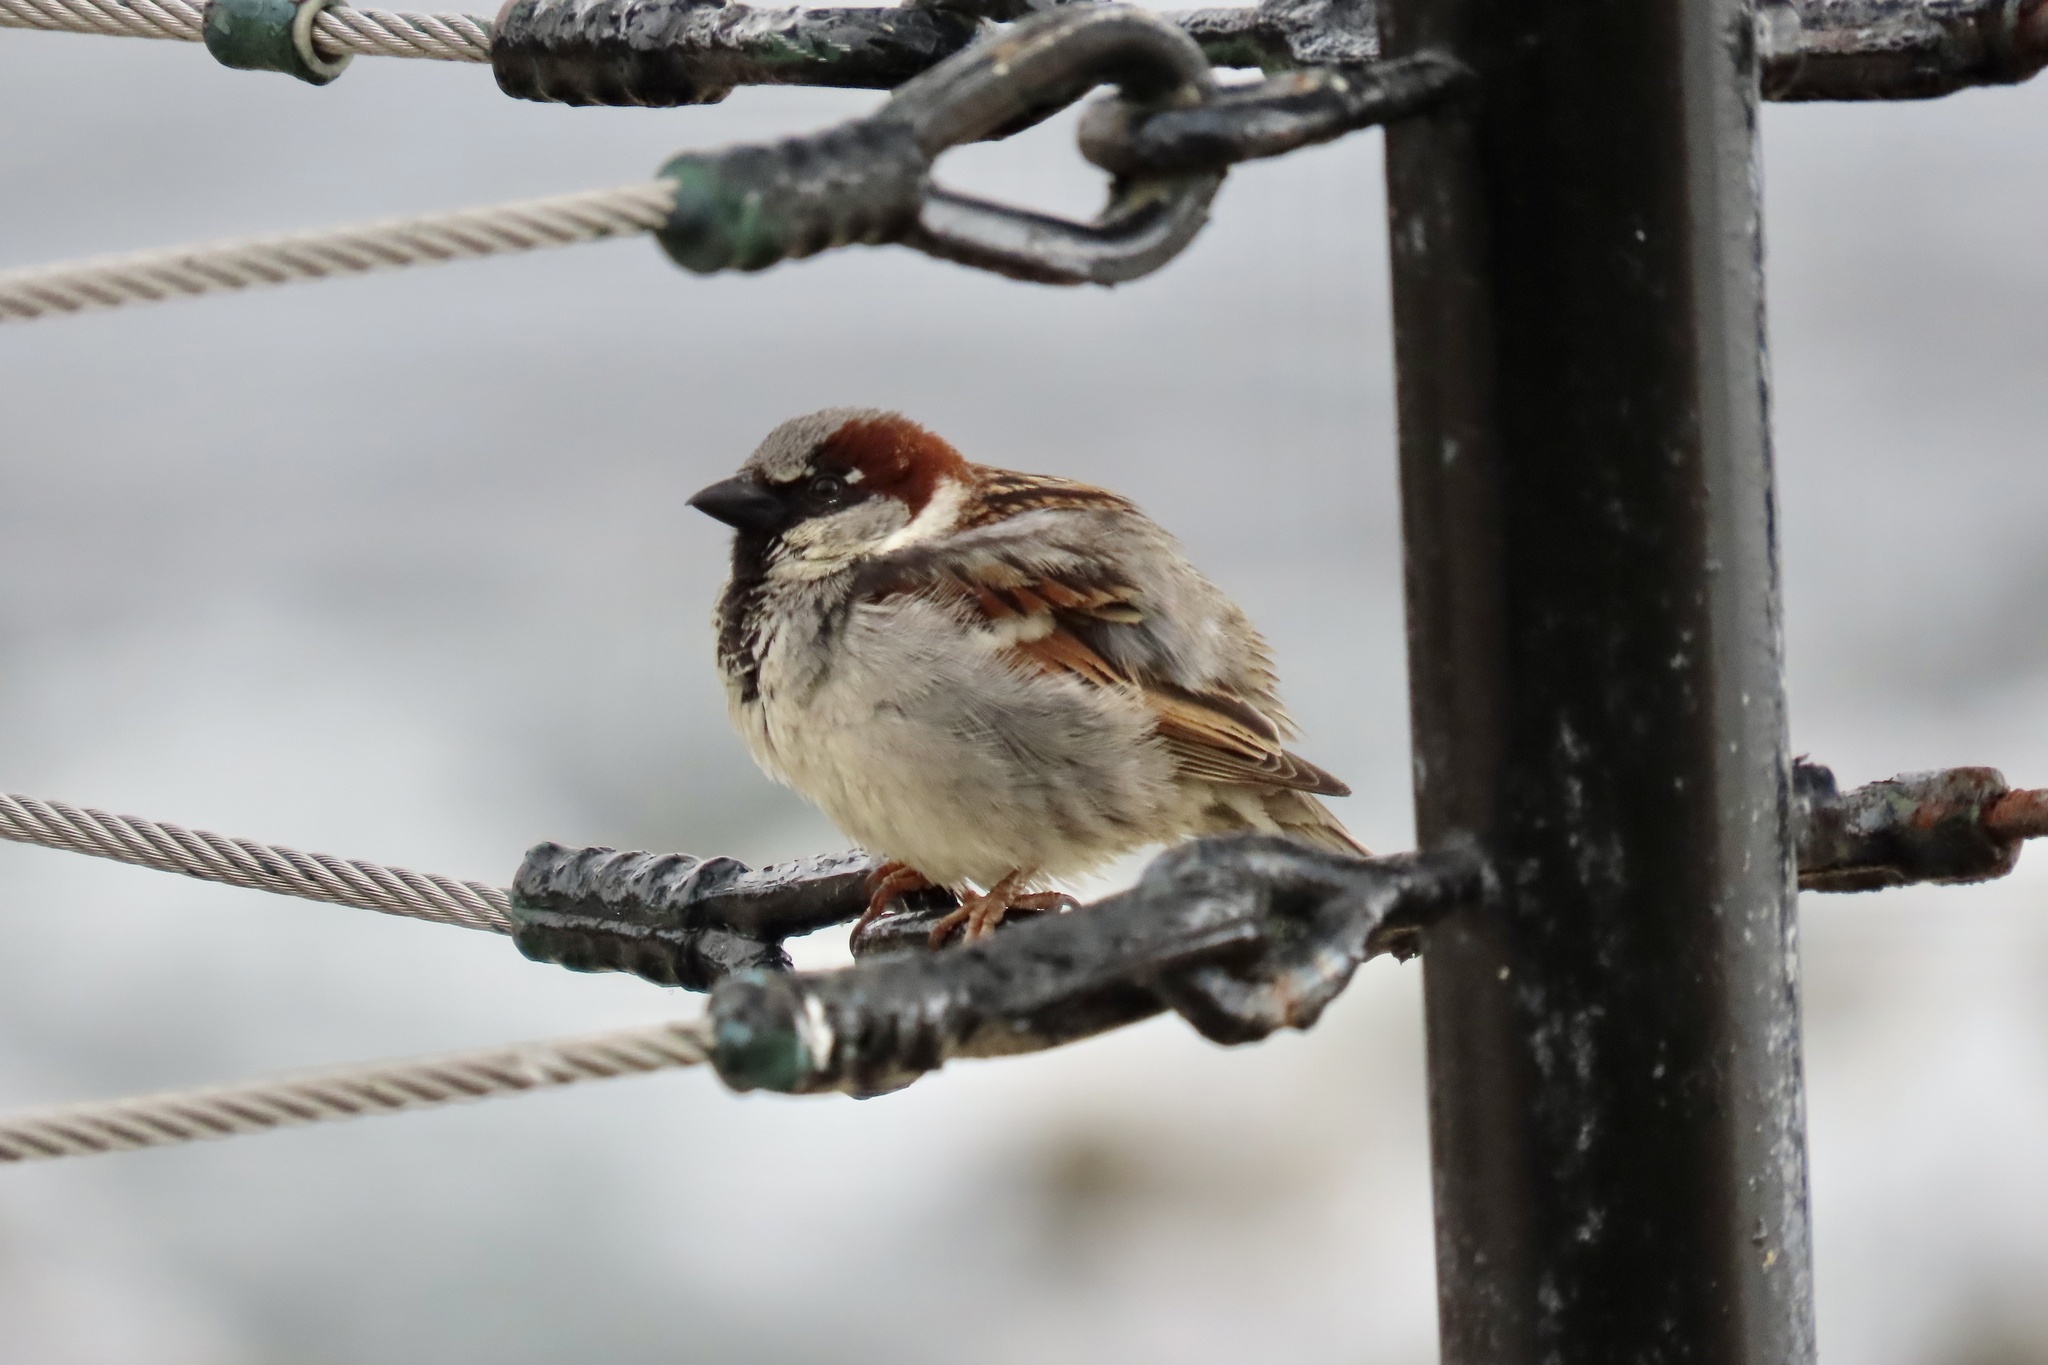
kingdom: Animalia
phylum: Chordata
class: Aves
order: Passeriformes
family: Passeridae
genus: Passer
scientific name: Passer domesticus
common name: House sparrow
